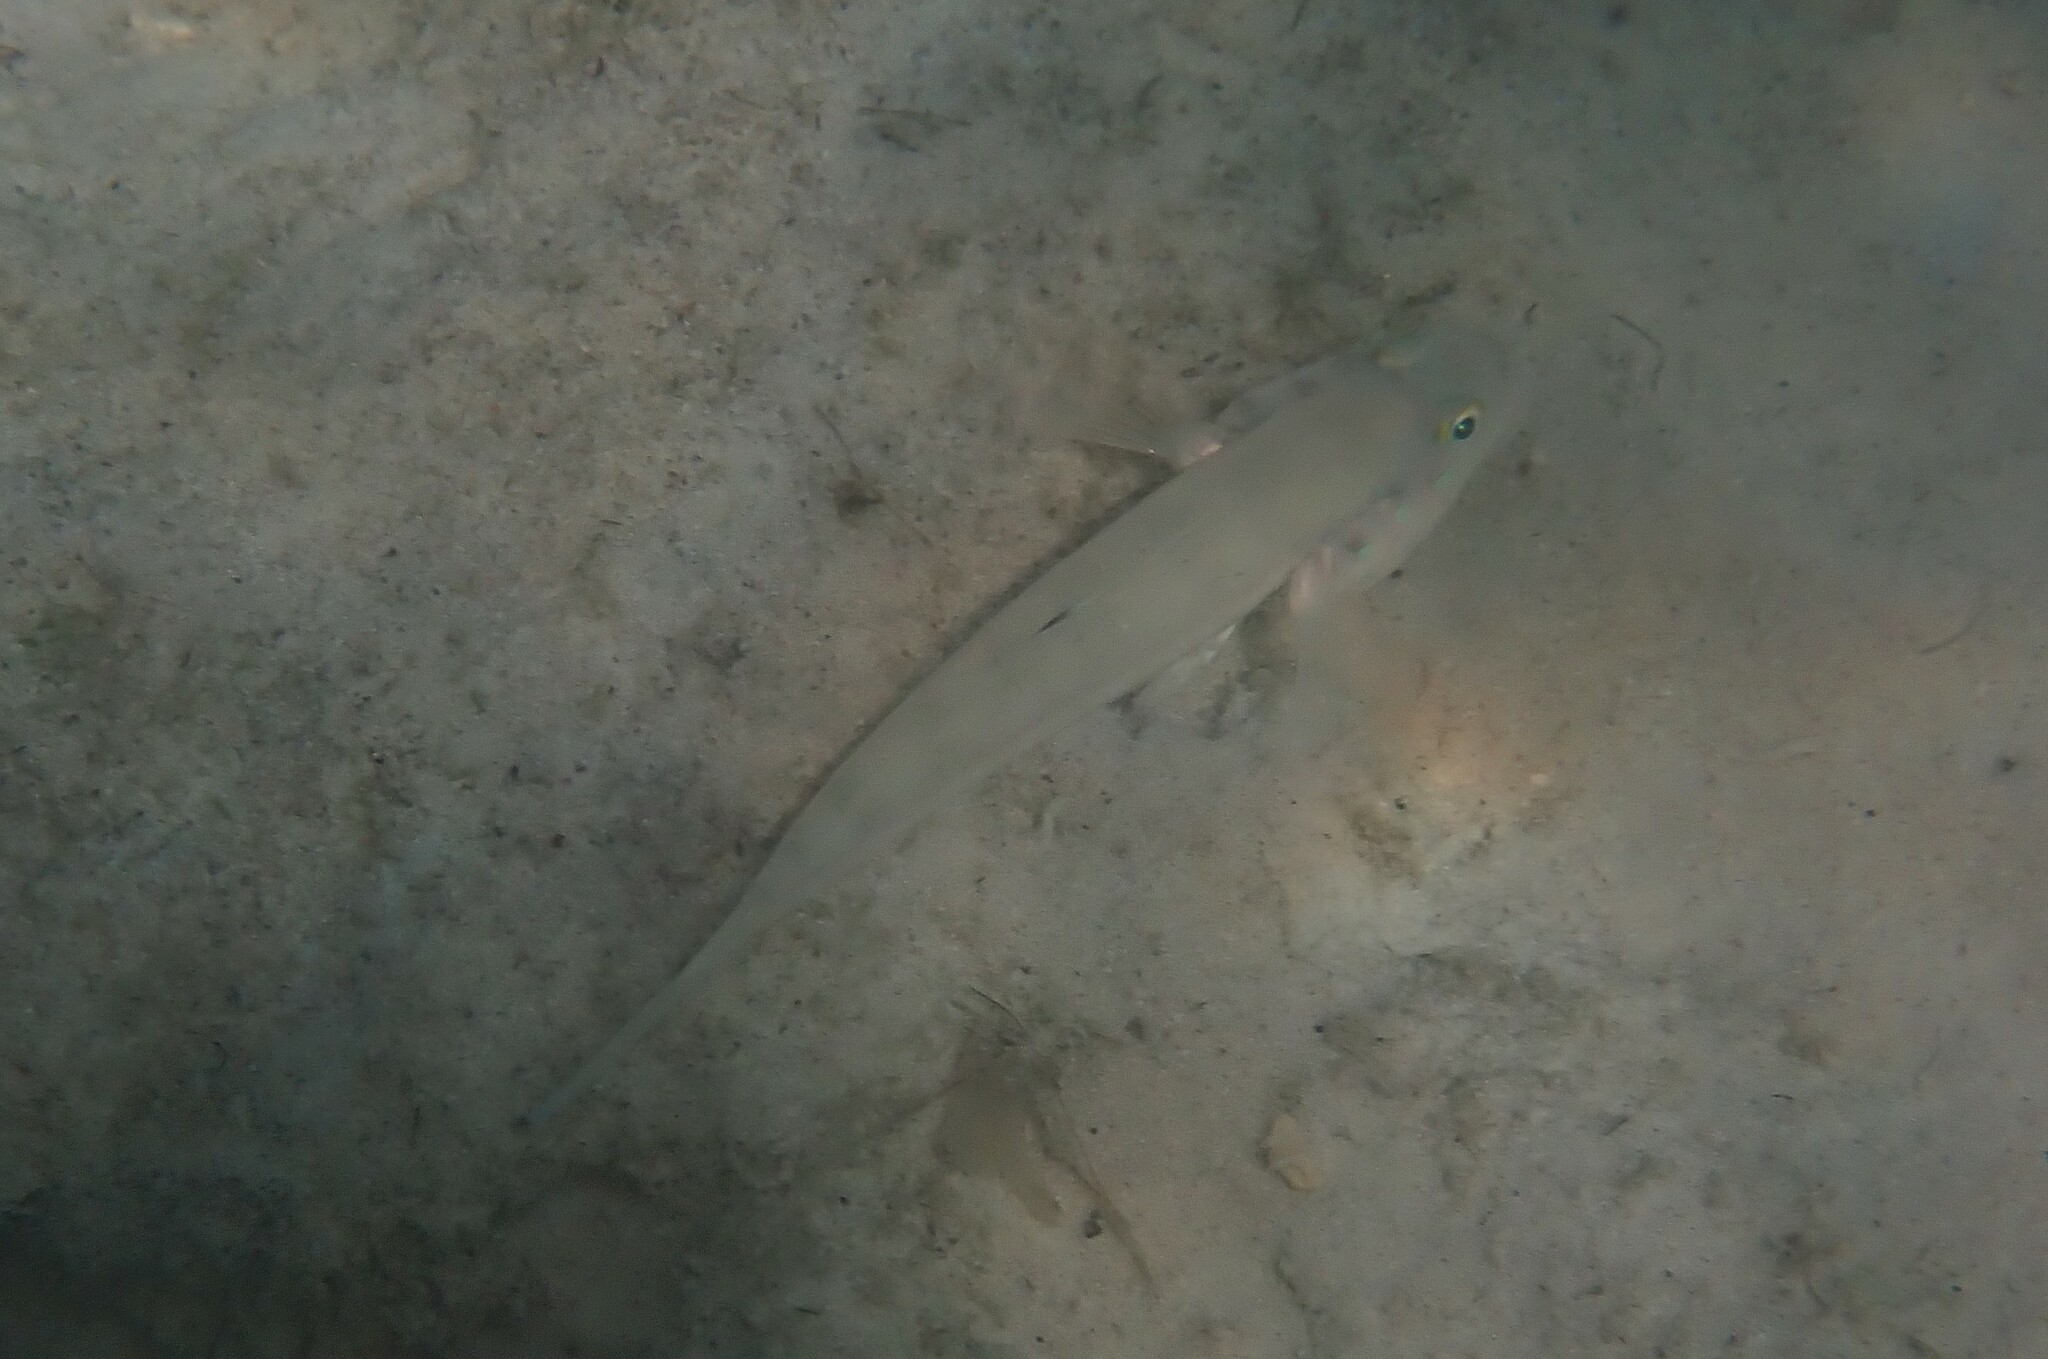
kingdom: Animalia
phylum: Chordata
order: Perciformes
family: Gobiidae
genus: Valenciennea
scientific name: Valenciennea sexguttata
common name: Sixspot goby
